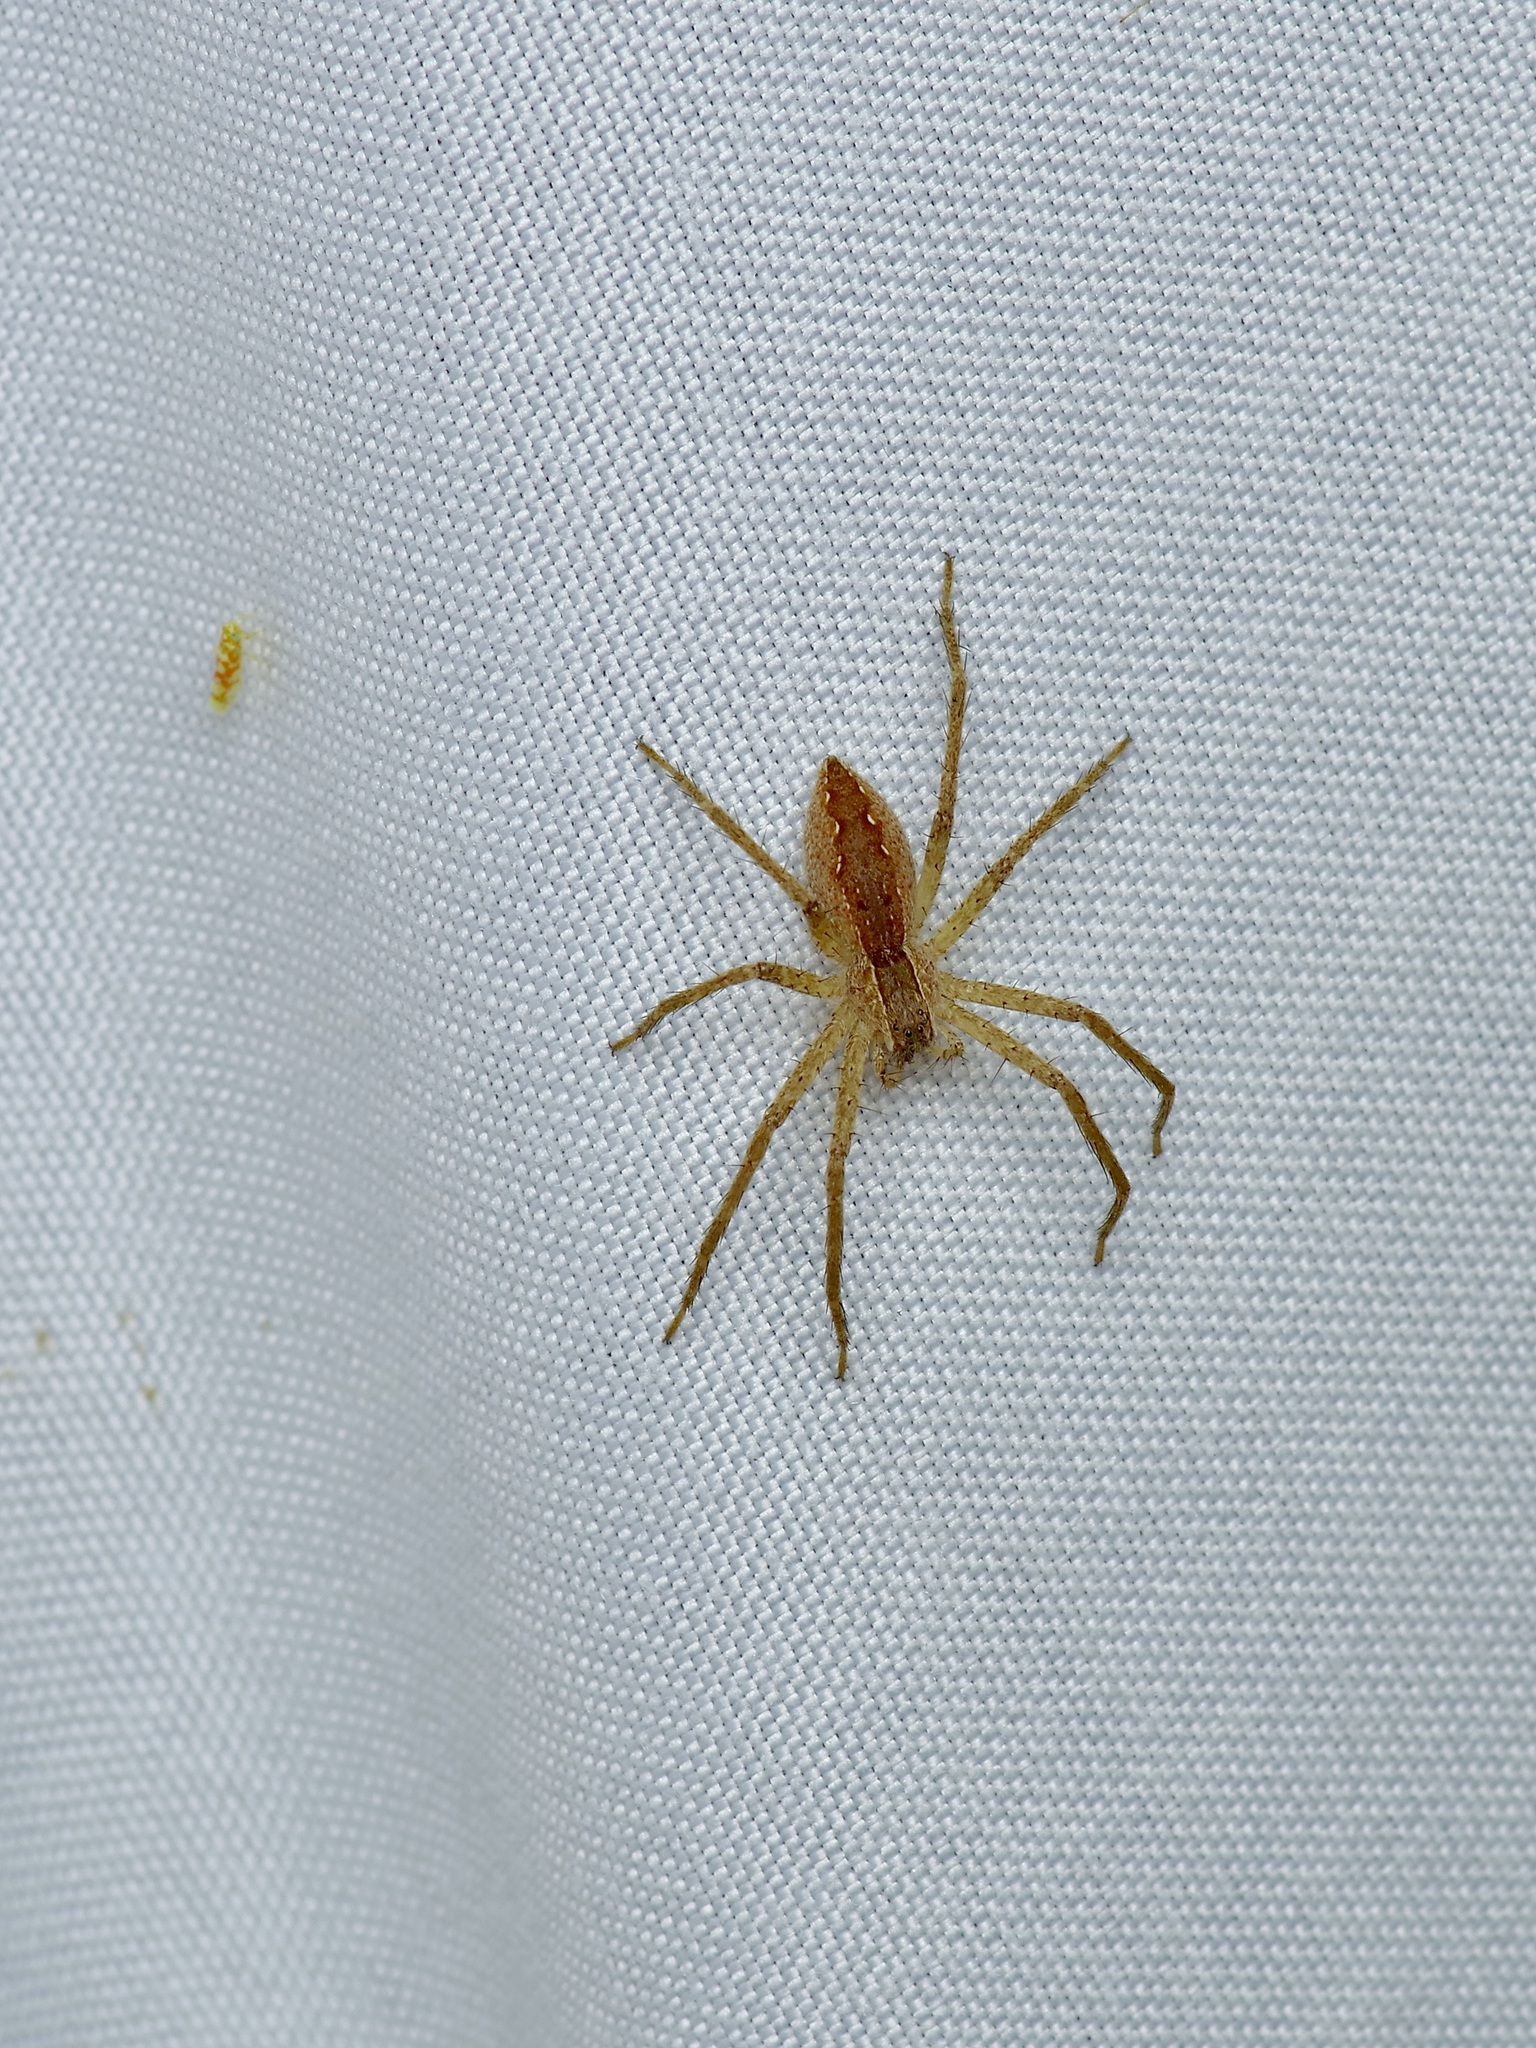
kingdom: Animalia
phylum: Arthropoda
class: Arachnida
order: Araneae
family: Pisauridae
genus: Pisaurina
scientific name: Pisaurina mira
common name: American nursery web spider
